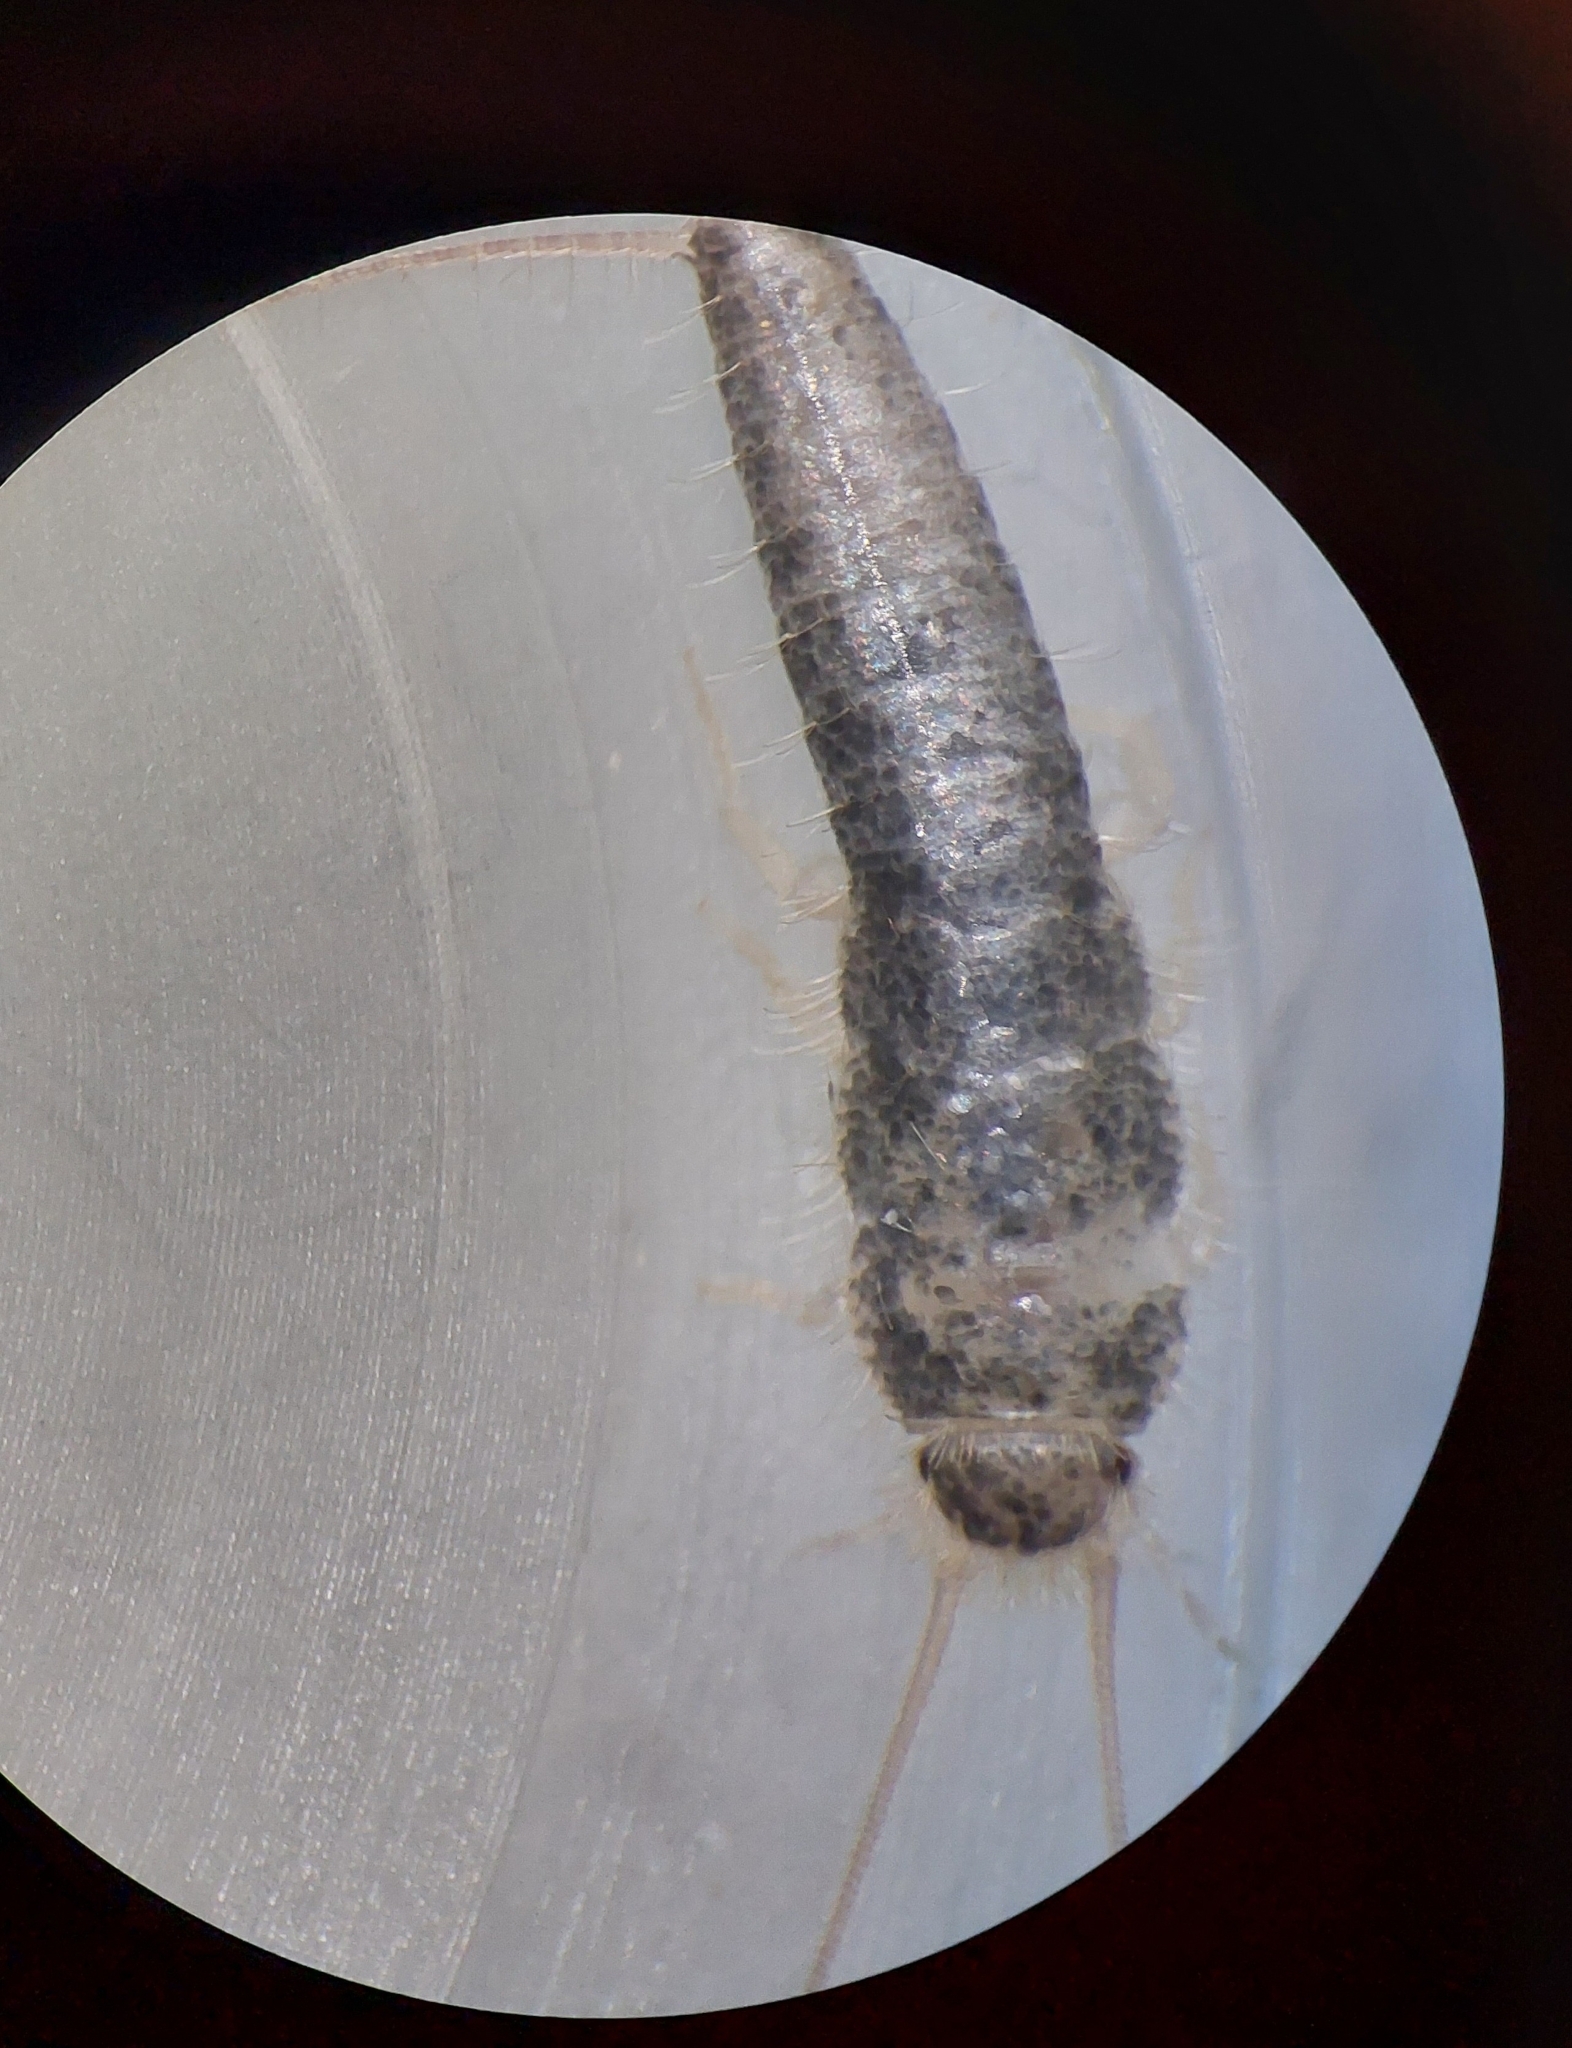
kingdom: Animalia
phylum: Arthropoda
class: Insecta
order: Zygentoma
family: Lepismatidae
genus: Ctenolepisma
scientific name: Ctenolepisma longicaudatum
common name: Silverfish
